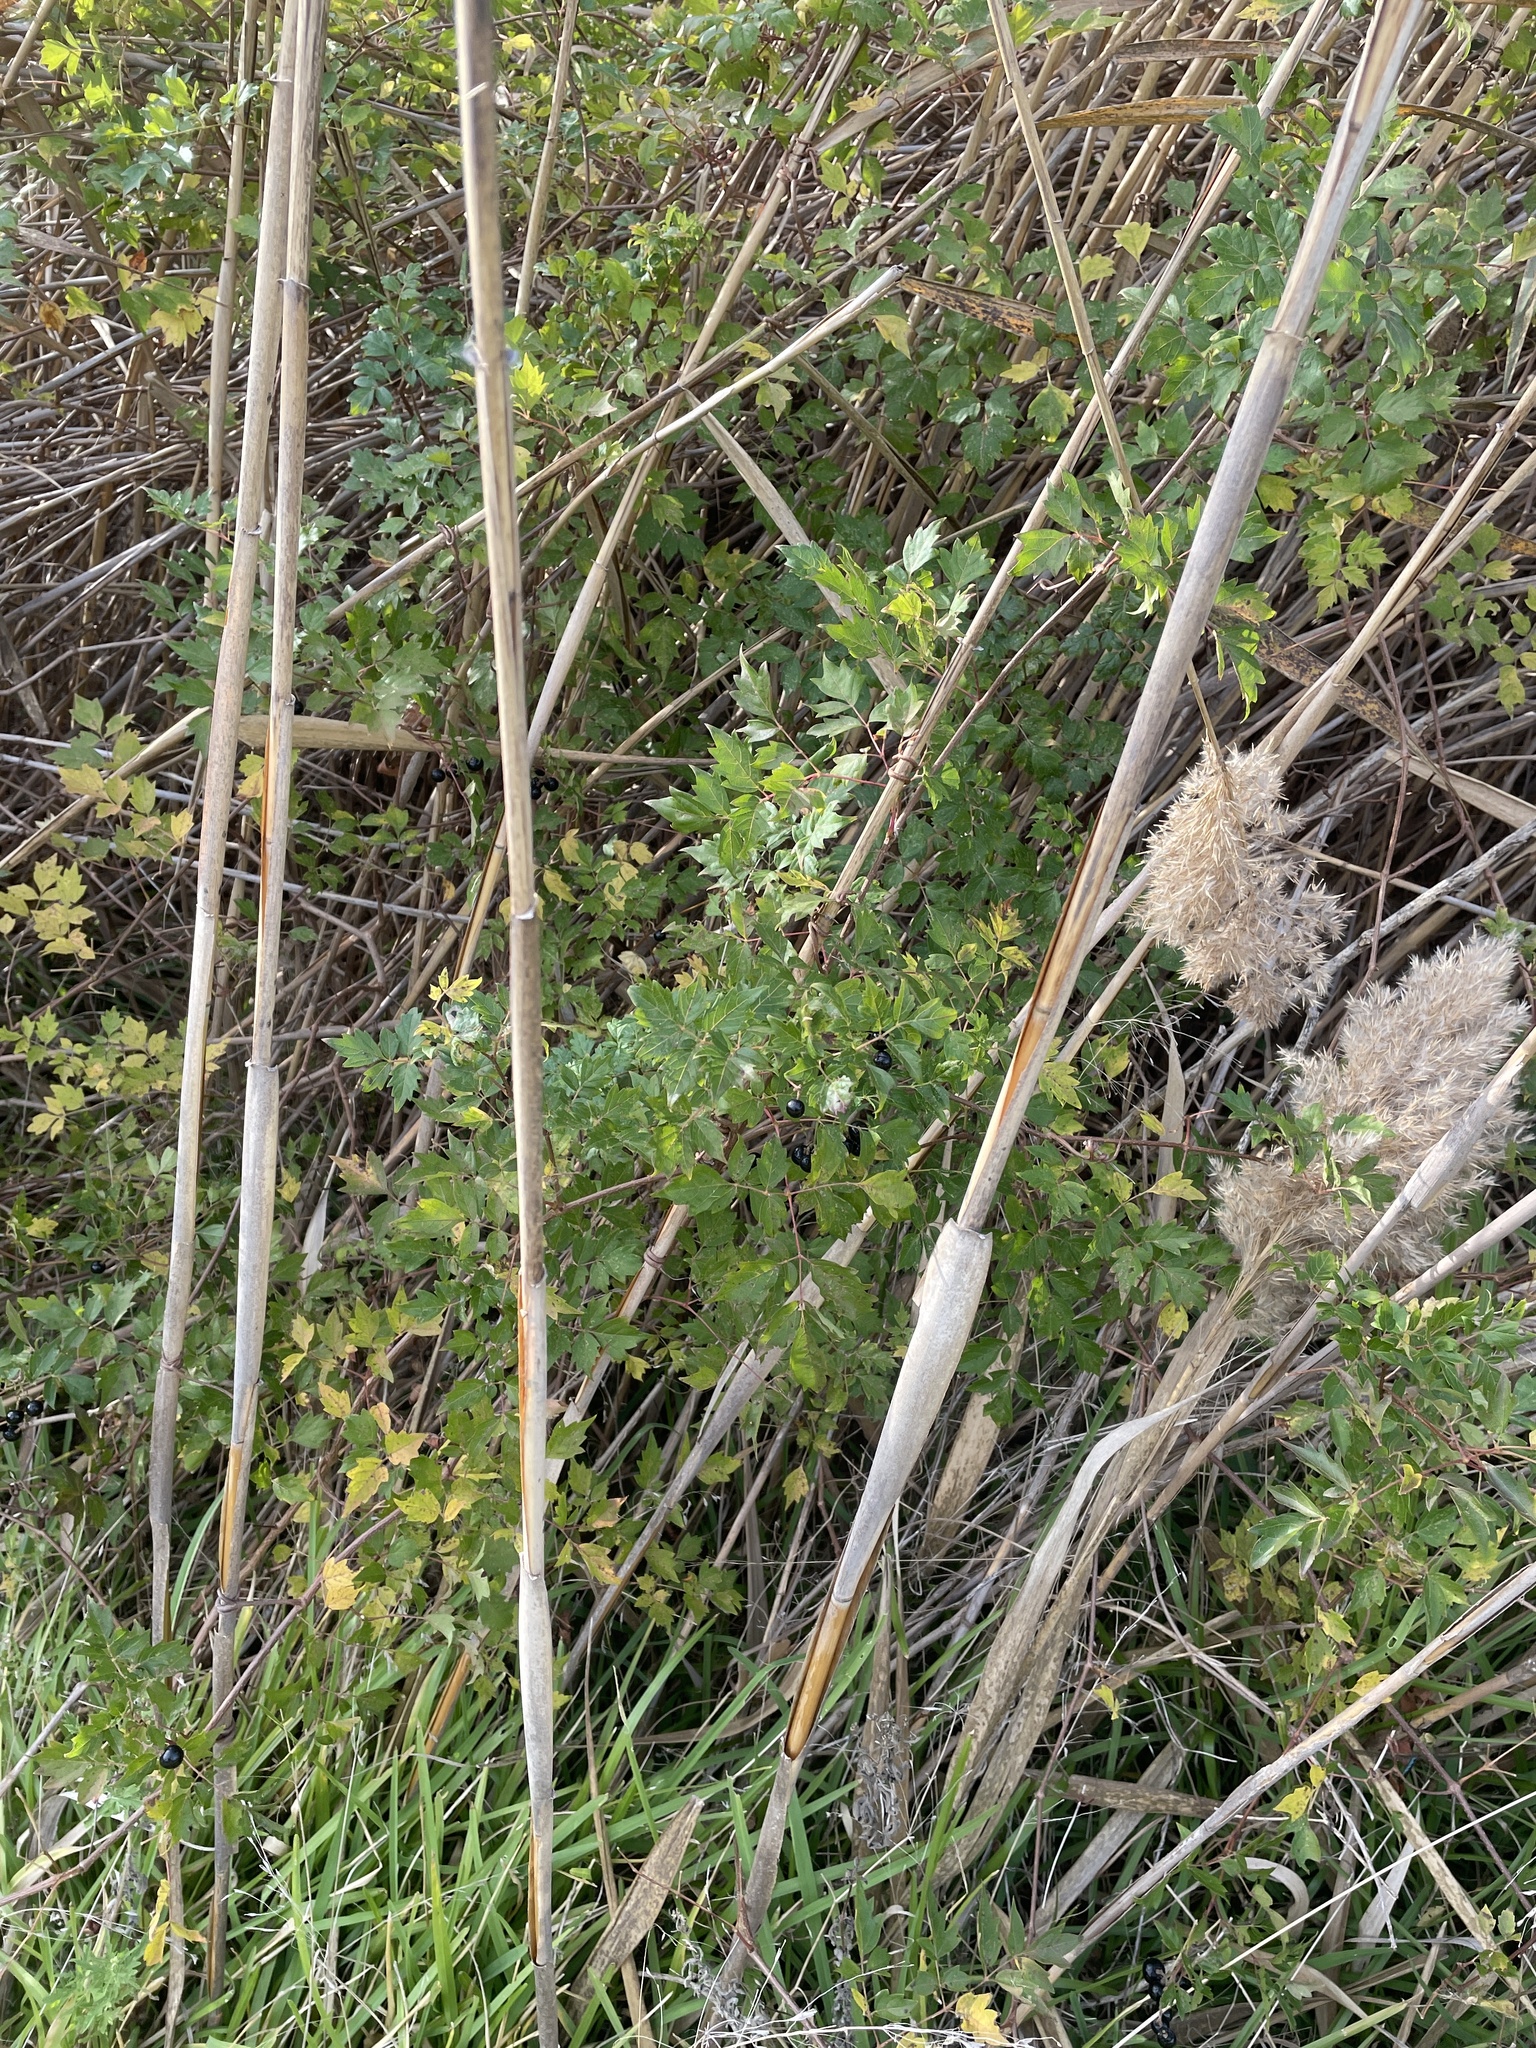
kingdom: Plantae
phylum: Tracheophyta
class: Magnoliopsida
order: Vitales
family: Vitaceae
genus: Nekemias
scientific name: Nekemias arborea
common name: Peppervine
